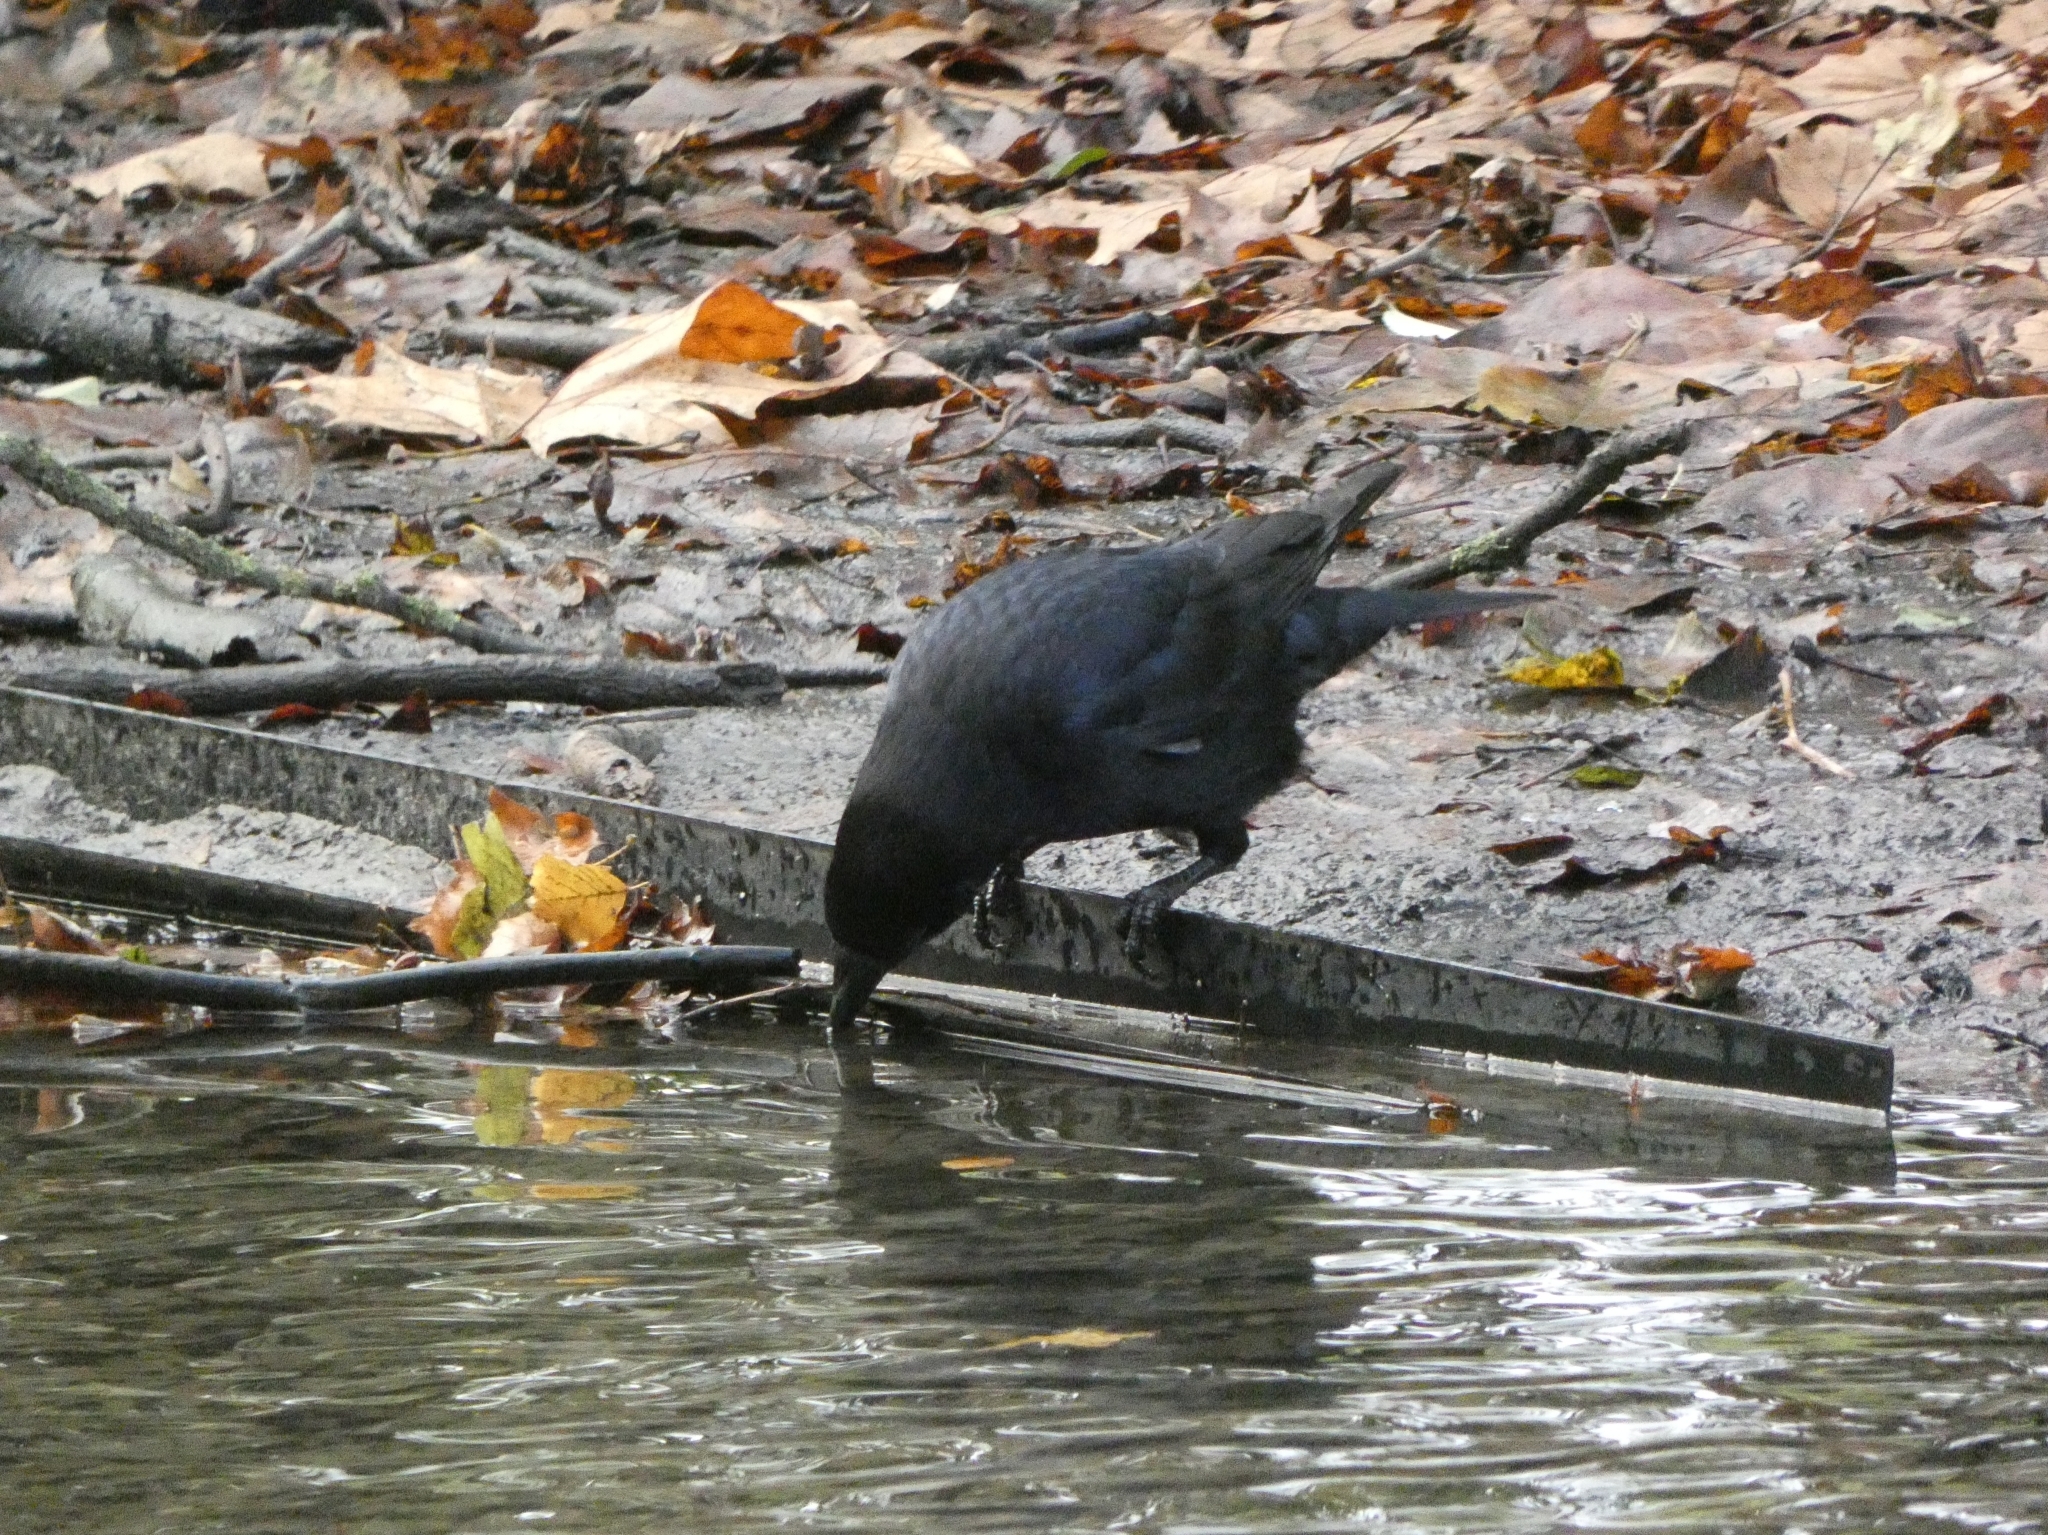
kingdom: Animalia
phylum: Chordata
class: Aves
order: Passeriformes
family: Corvidae
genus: Corvus
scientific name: Corvus corone
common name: Carrion crow
